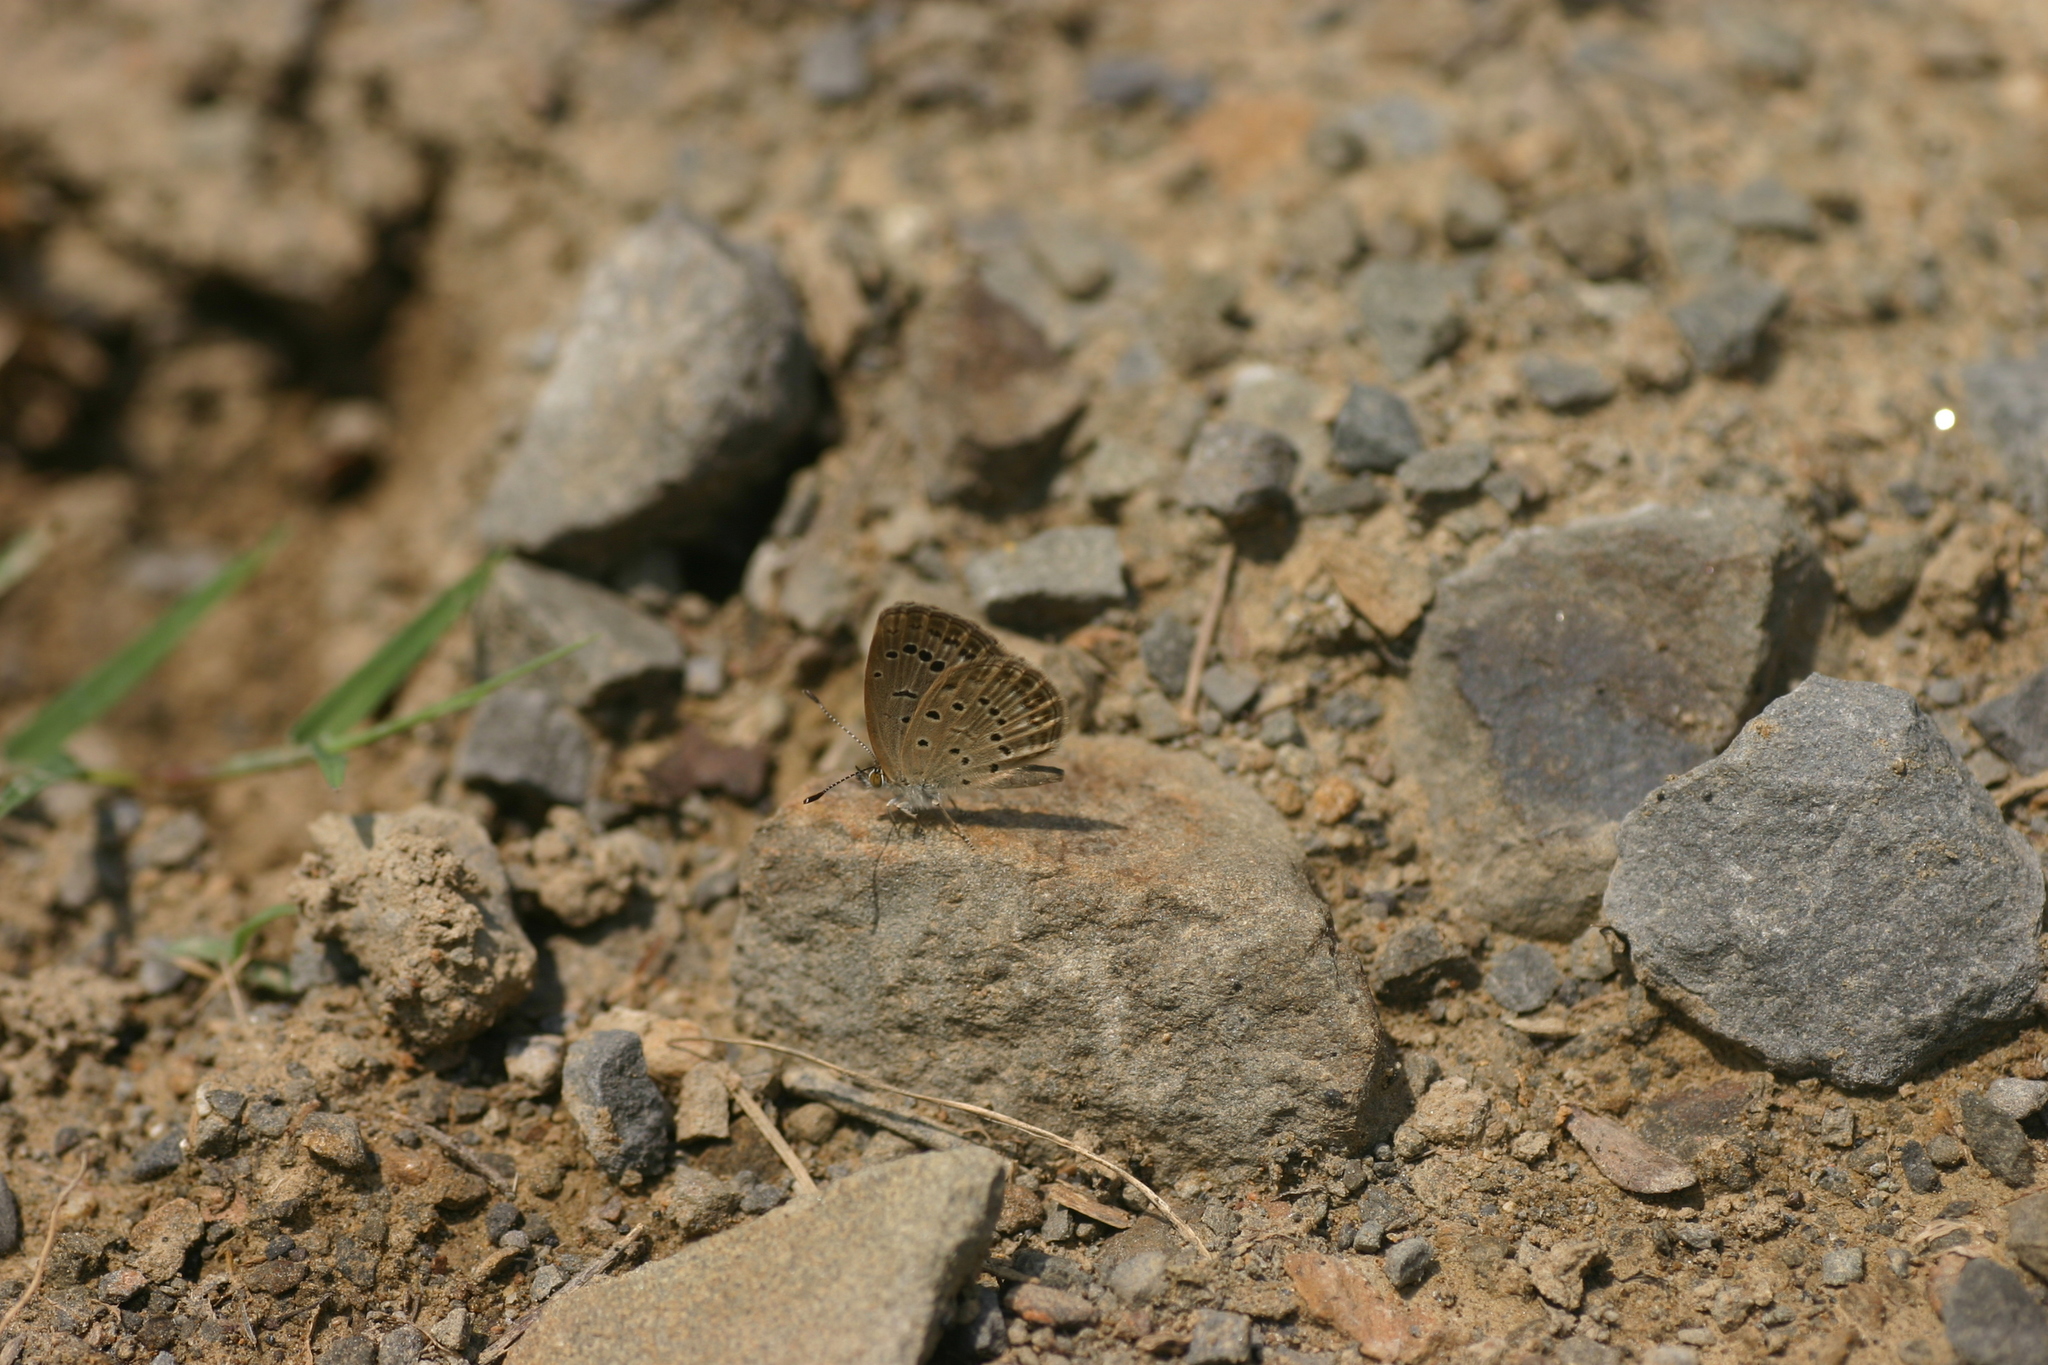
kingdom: Animalia
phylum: Arthropoda
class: Insecta
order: Lepidoptera
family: Lycaenidae
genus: Zizeeria
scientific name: Zizeeria karsandra
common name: Dark grass blue
